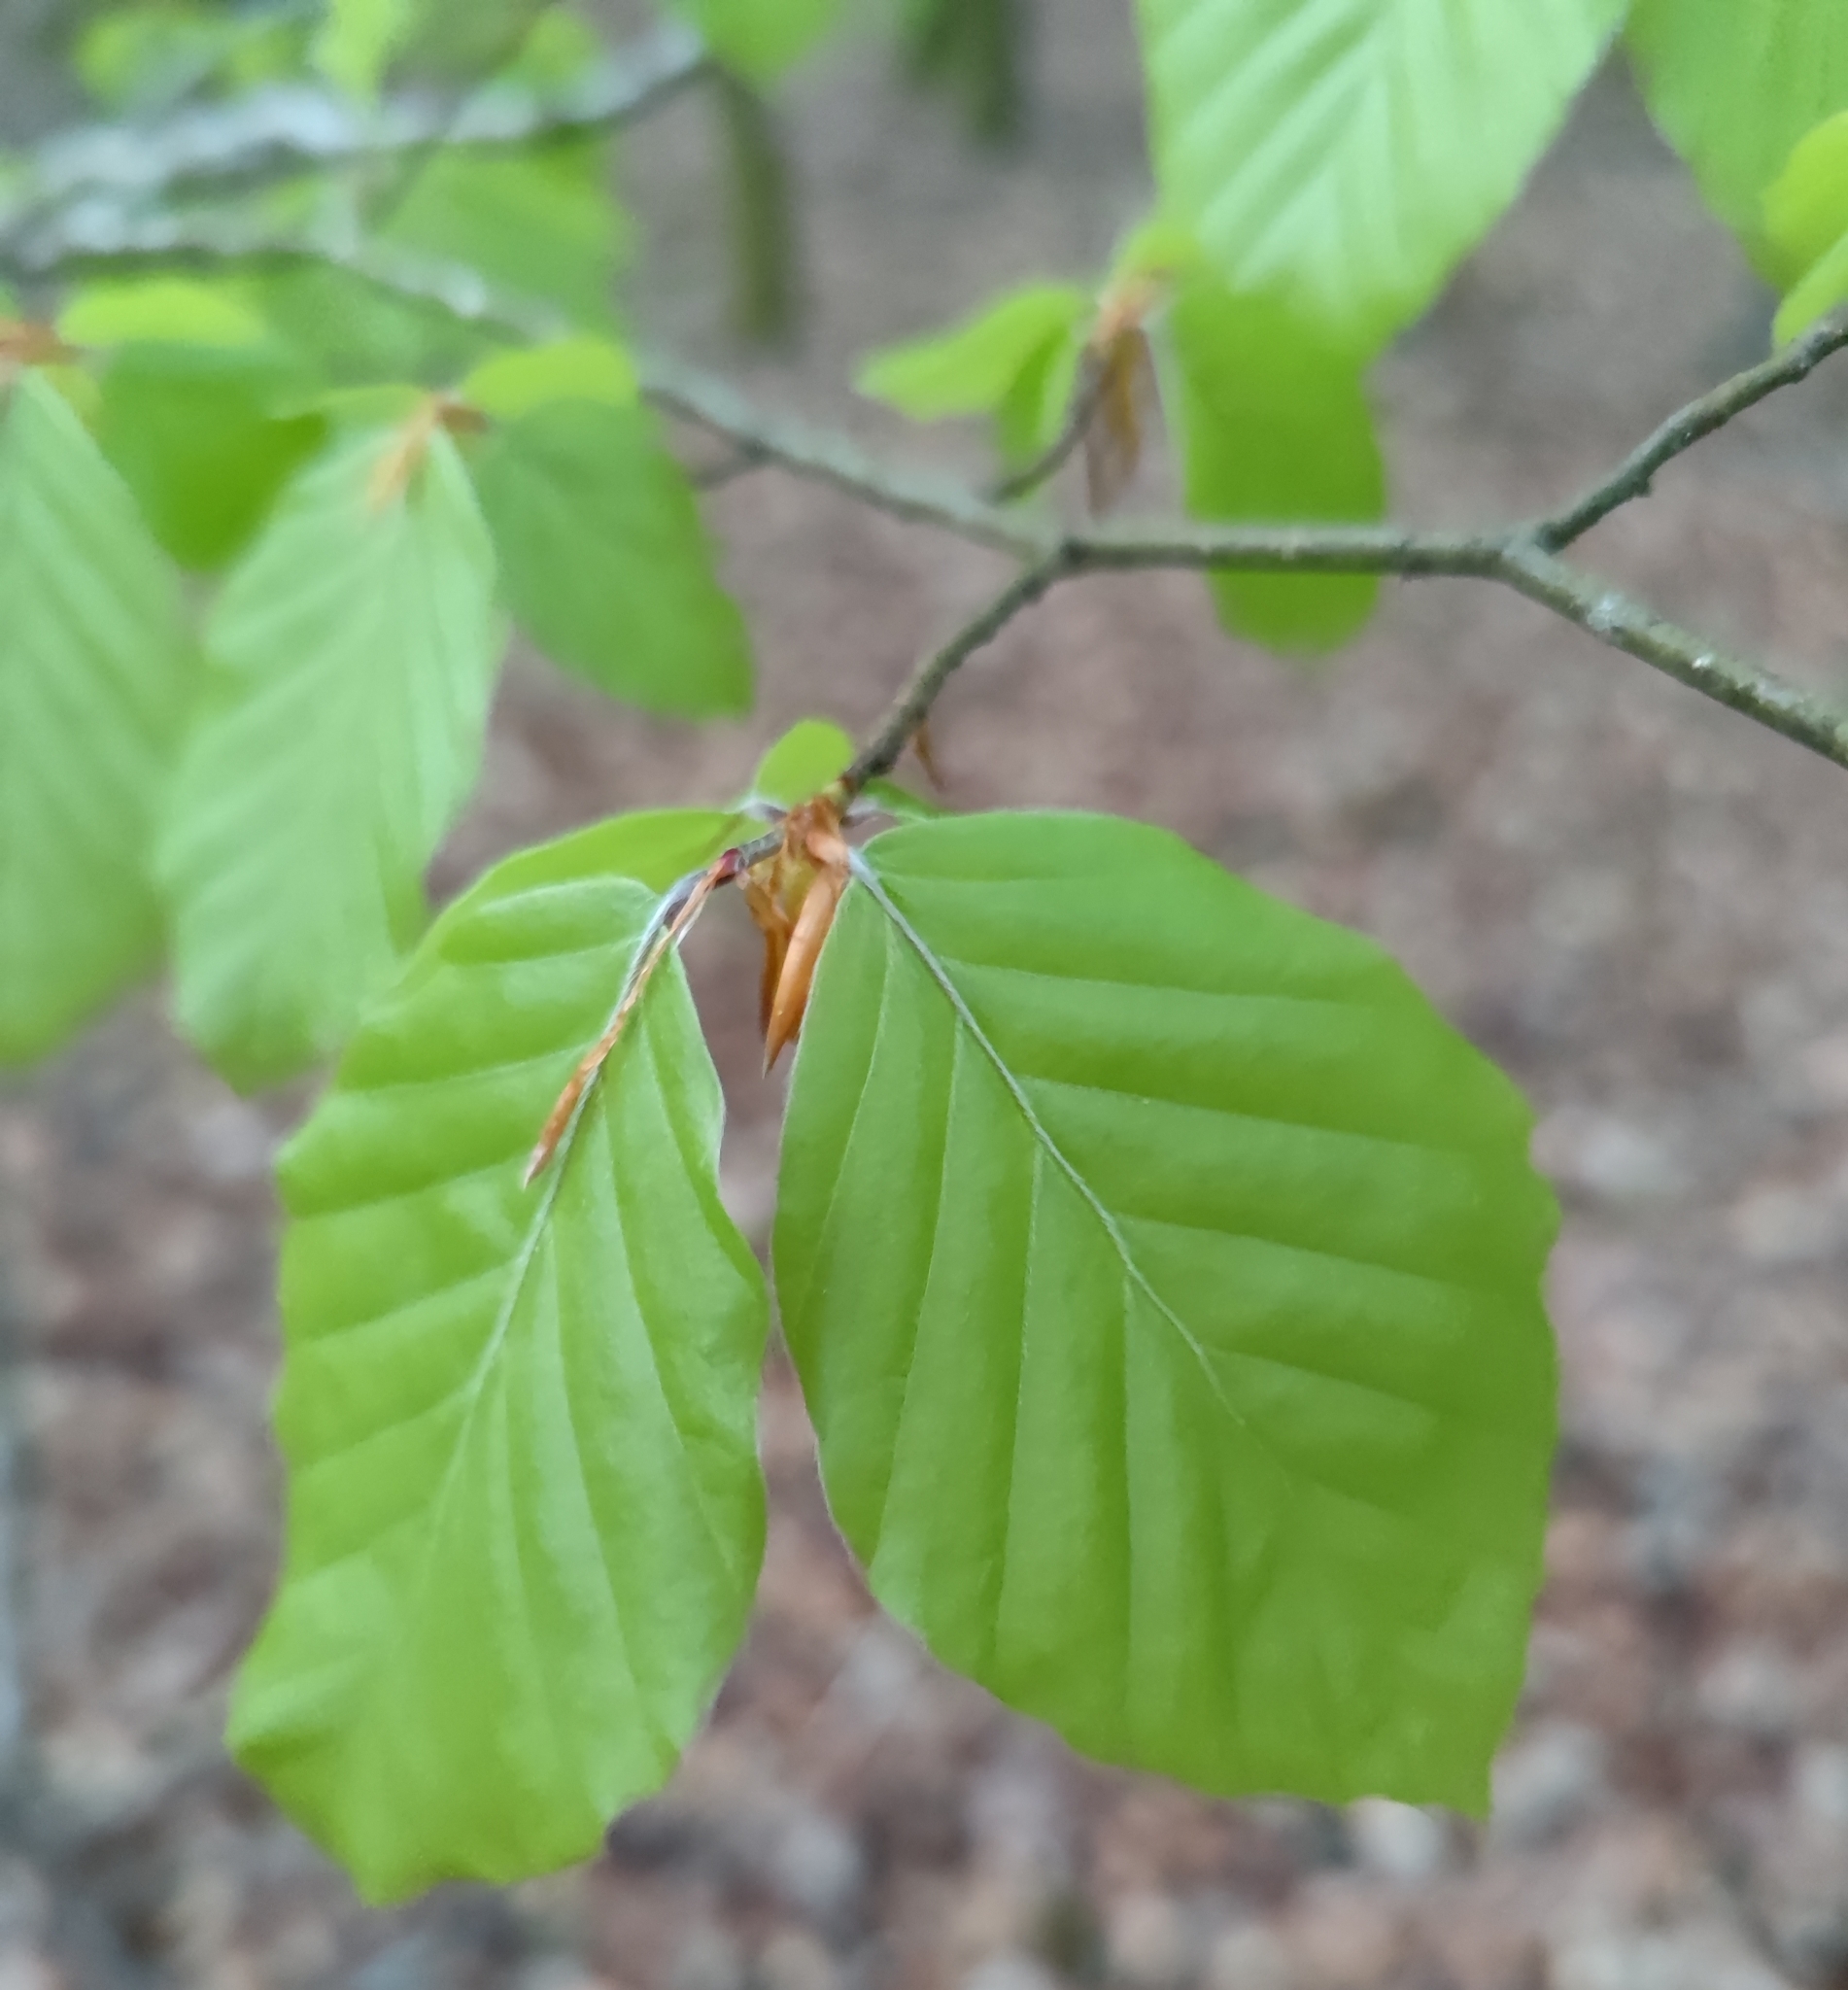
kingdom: Plantae
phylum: Tracheophyta
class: Magnoliopsida
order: Fagales
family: Fagaceae
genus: Fagus
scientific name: Fagus sylvatica
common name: Beech
